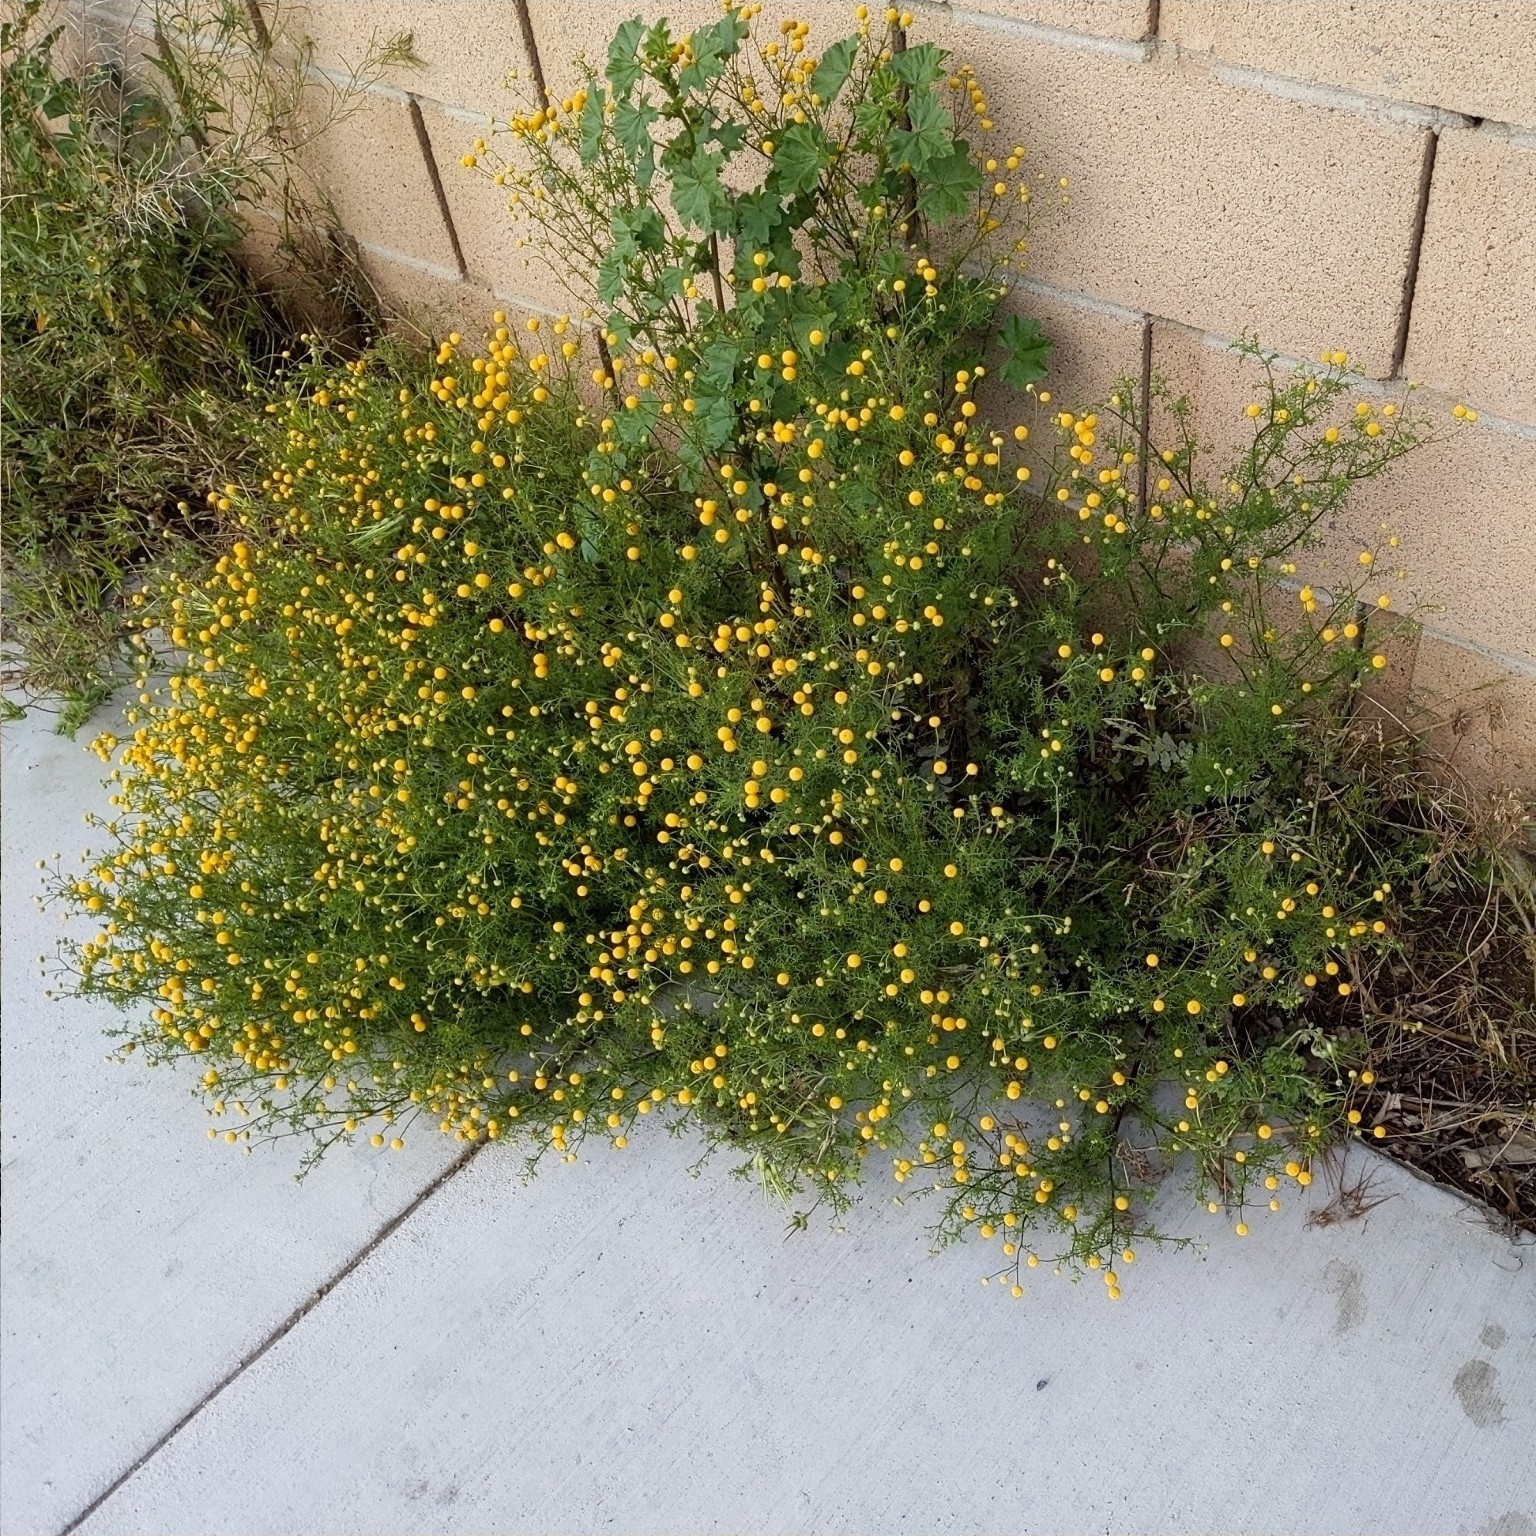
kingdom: Plantae
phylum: Tracheophyta
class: Magnoliopsida
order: Asterales
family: Asteraceae
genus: Oncosiphon
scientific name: Oncosiphon pilulifer
